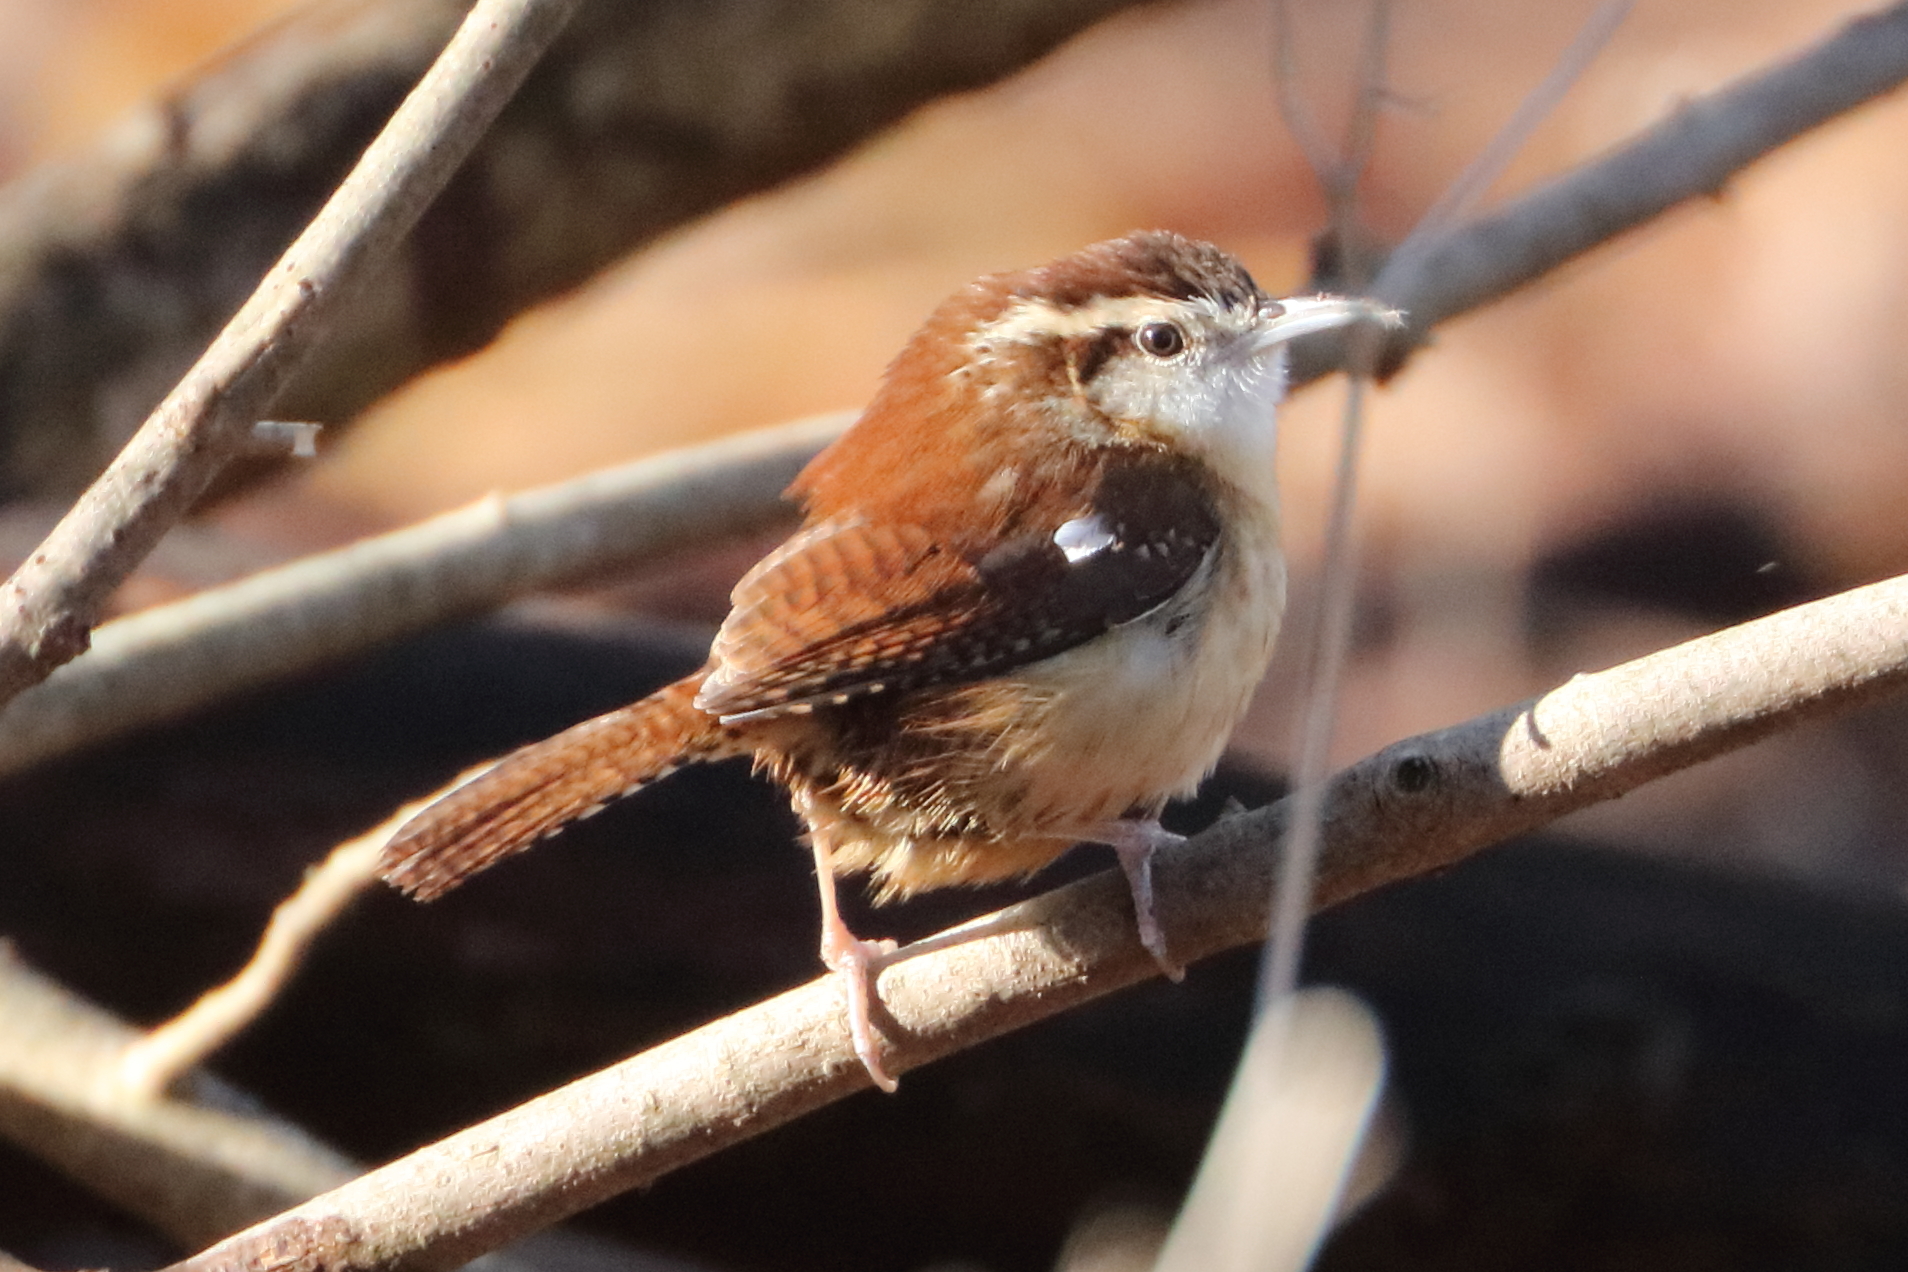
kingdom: Animalia
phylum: Chordata
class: Aves
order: Passeriformes
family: Troglodytidae
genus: Thryothorus
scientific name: Thryothorus ludovicianus
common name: Carolina wren
